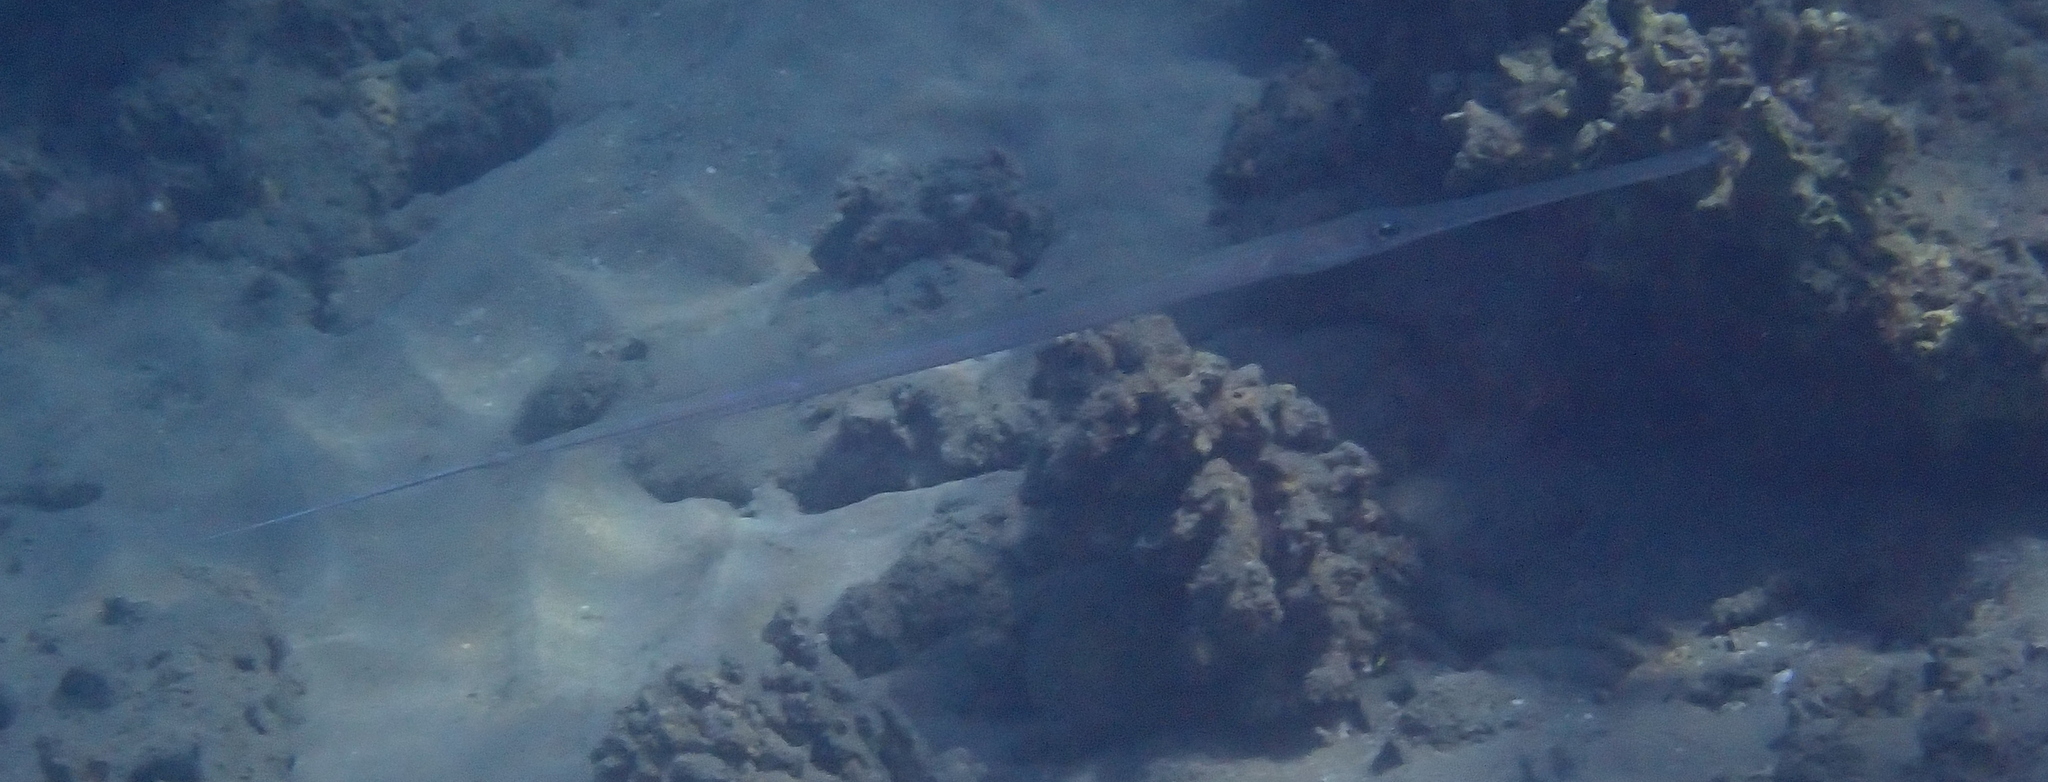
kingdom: Animalia
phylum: Chordata
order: Syngnathiformes
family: Fistulariidae
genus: Fistularia
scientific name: Fistularia commersonii
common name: Bluespotted cornetfish
